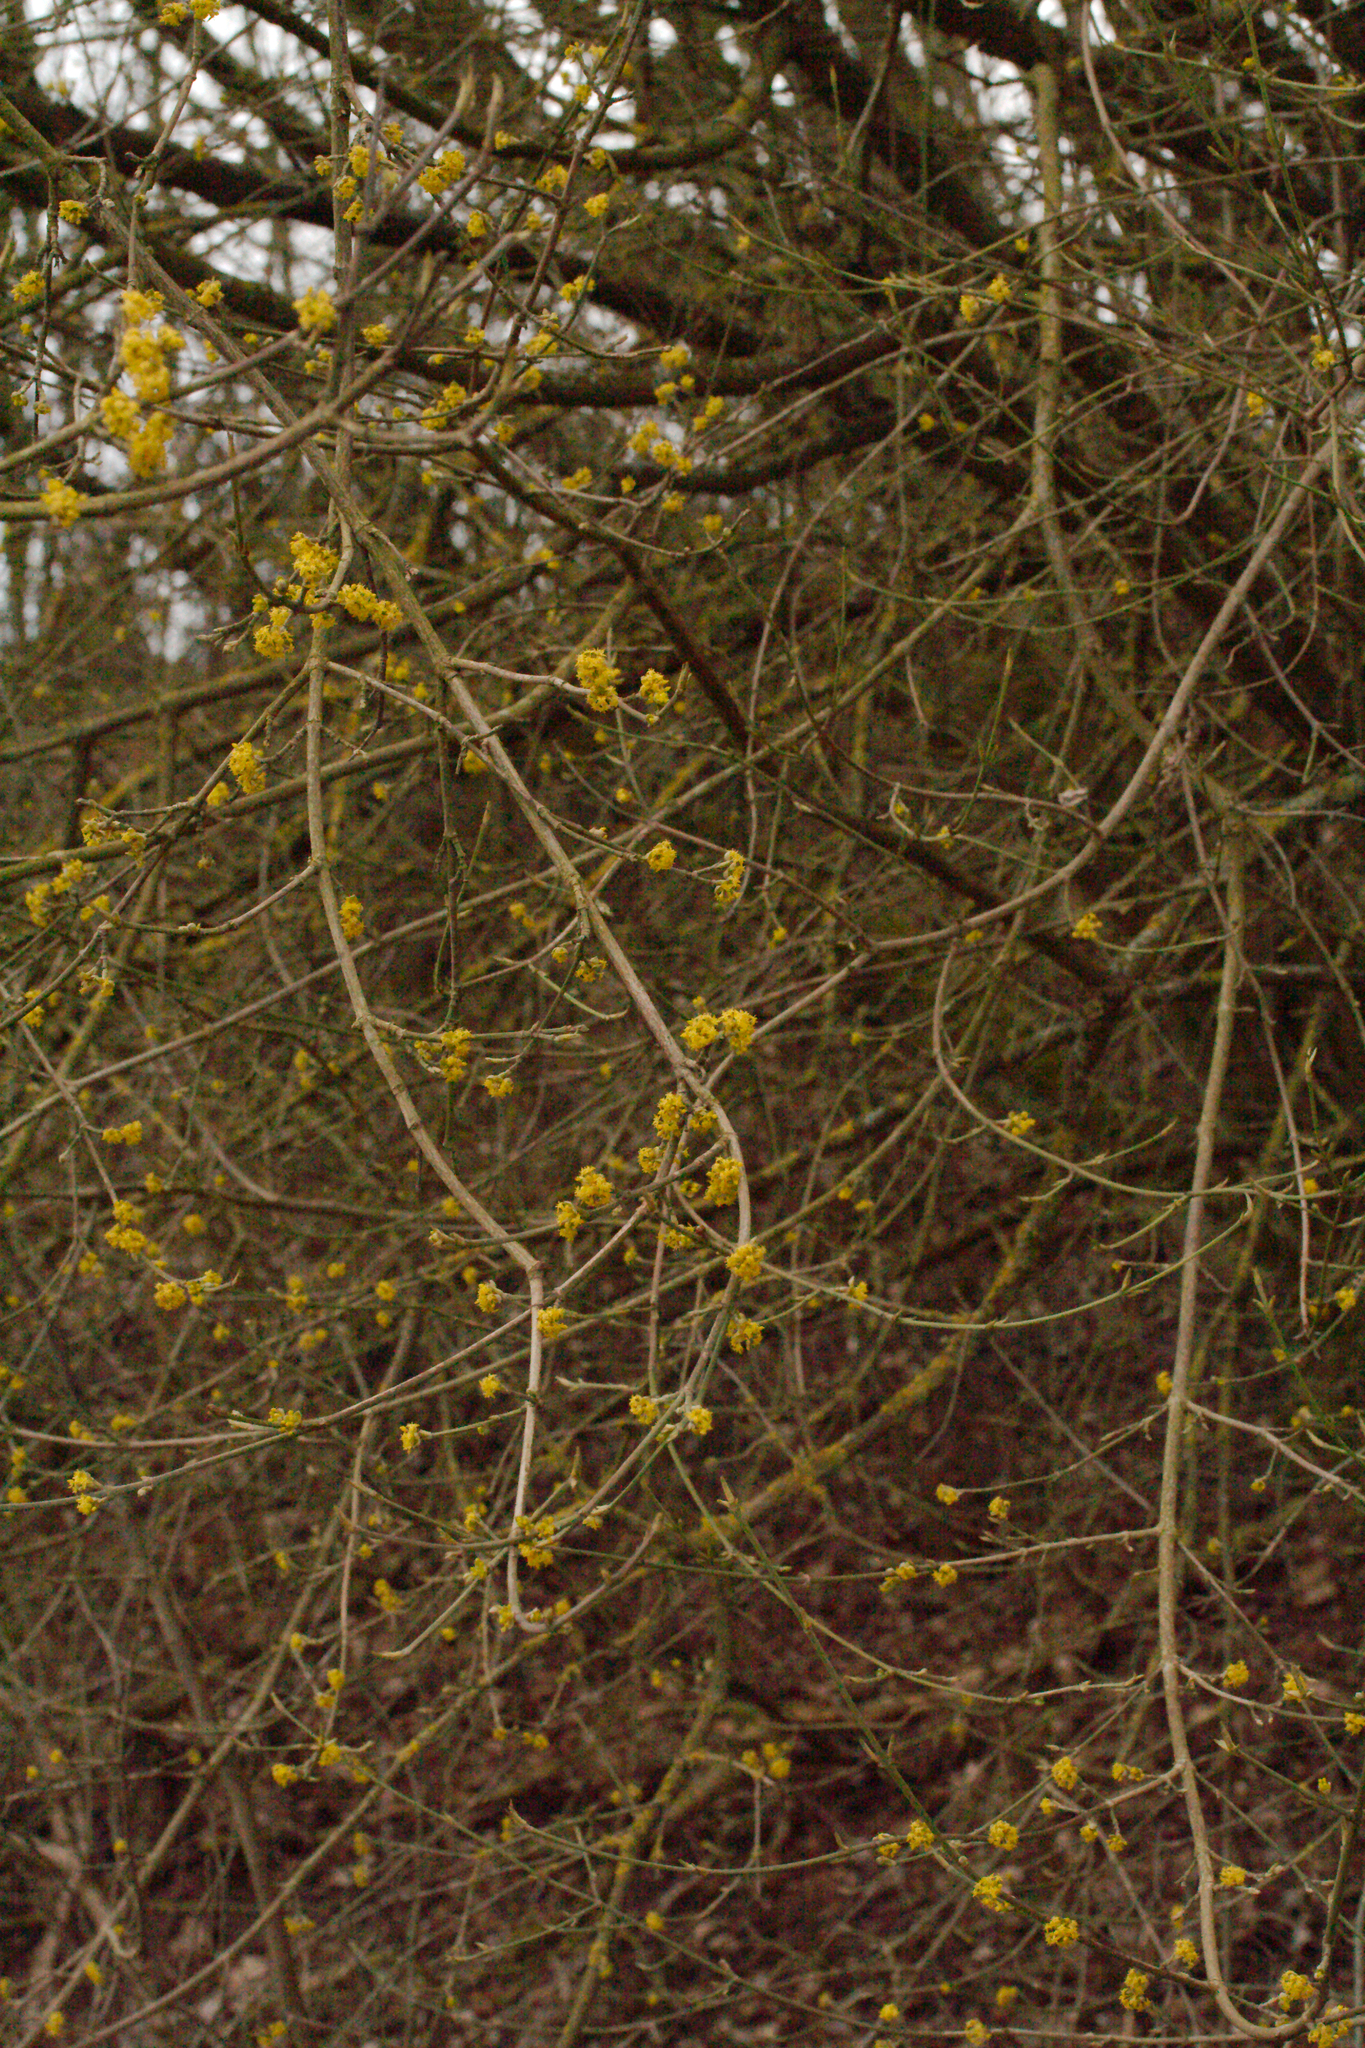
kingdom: Plantae
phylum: Tracheophyta
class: Magnoliopsida
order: Cornales
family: Cornaceae
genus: Cornus
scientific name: Cornus mas
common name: Cornelian-cherry
